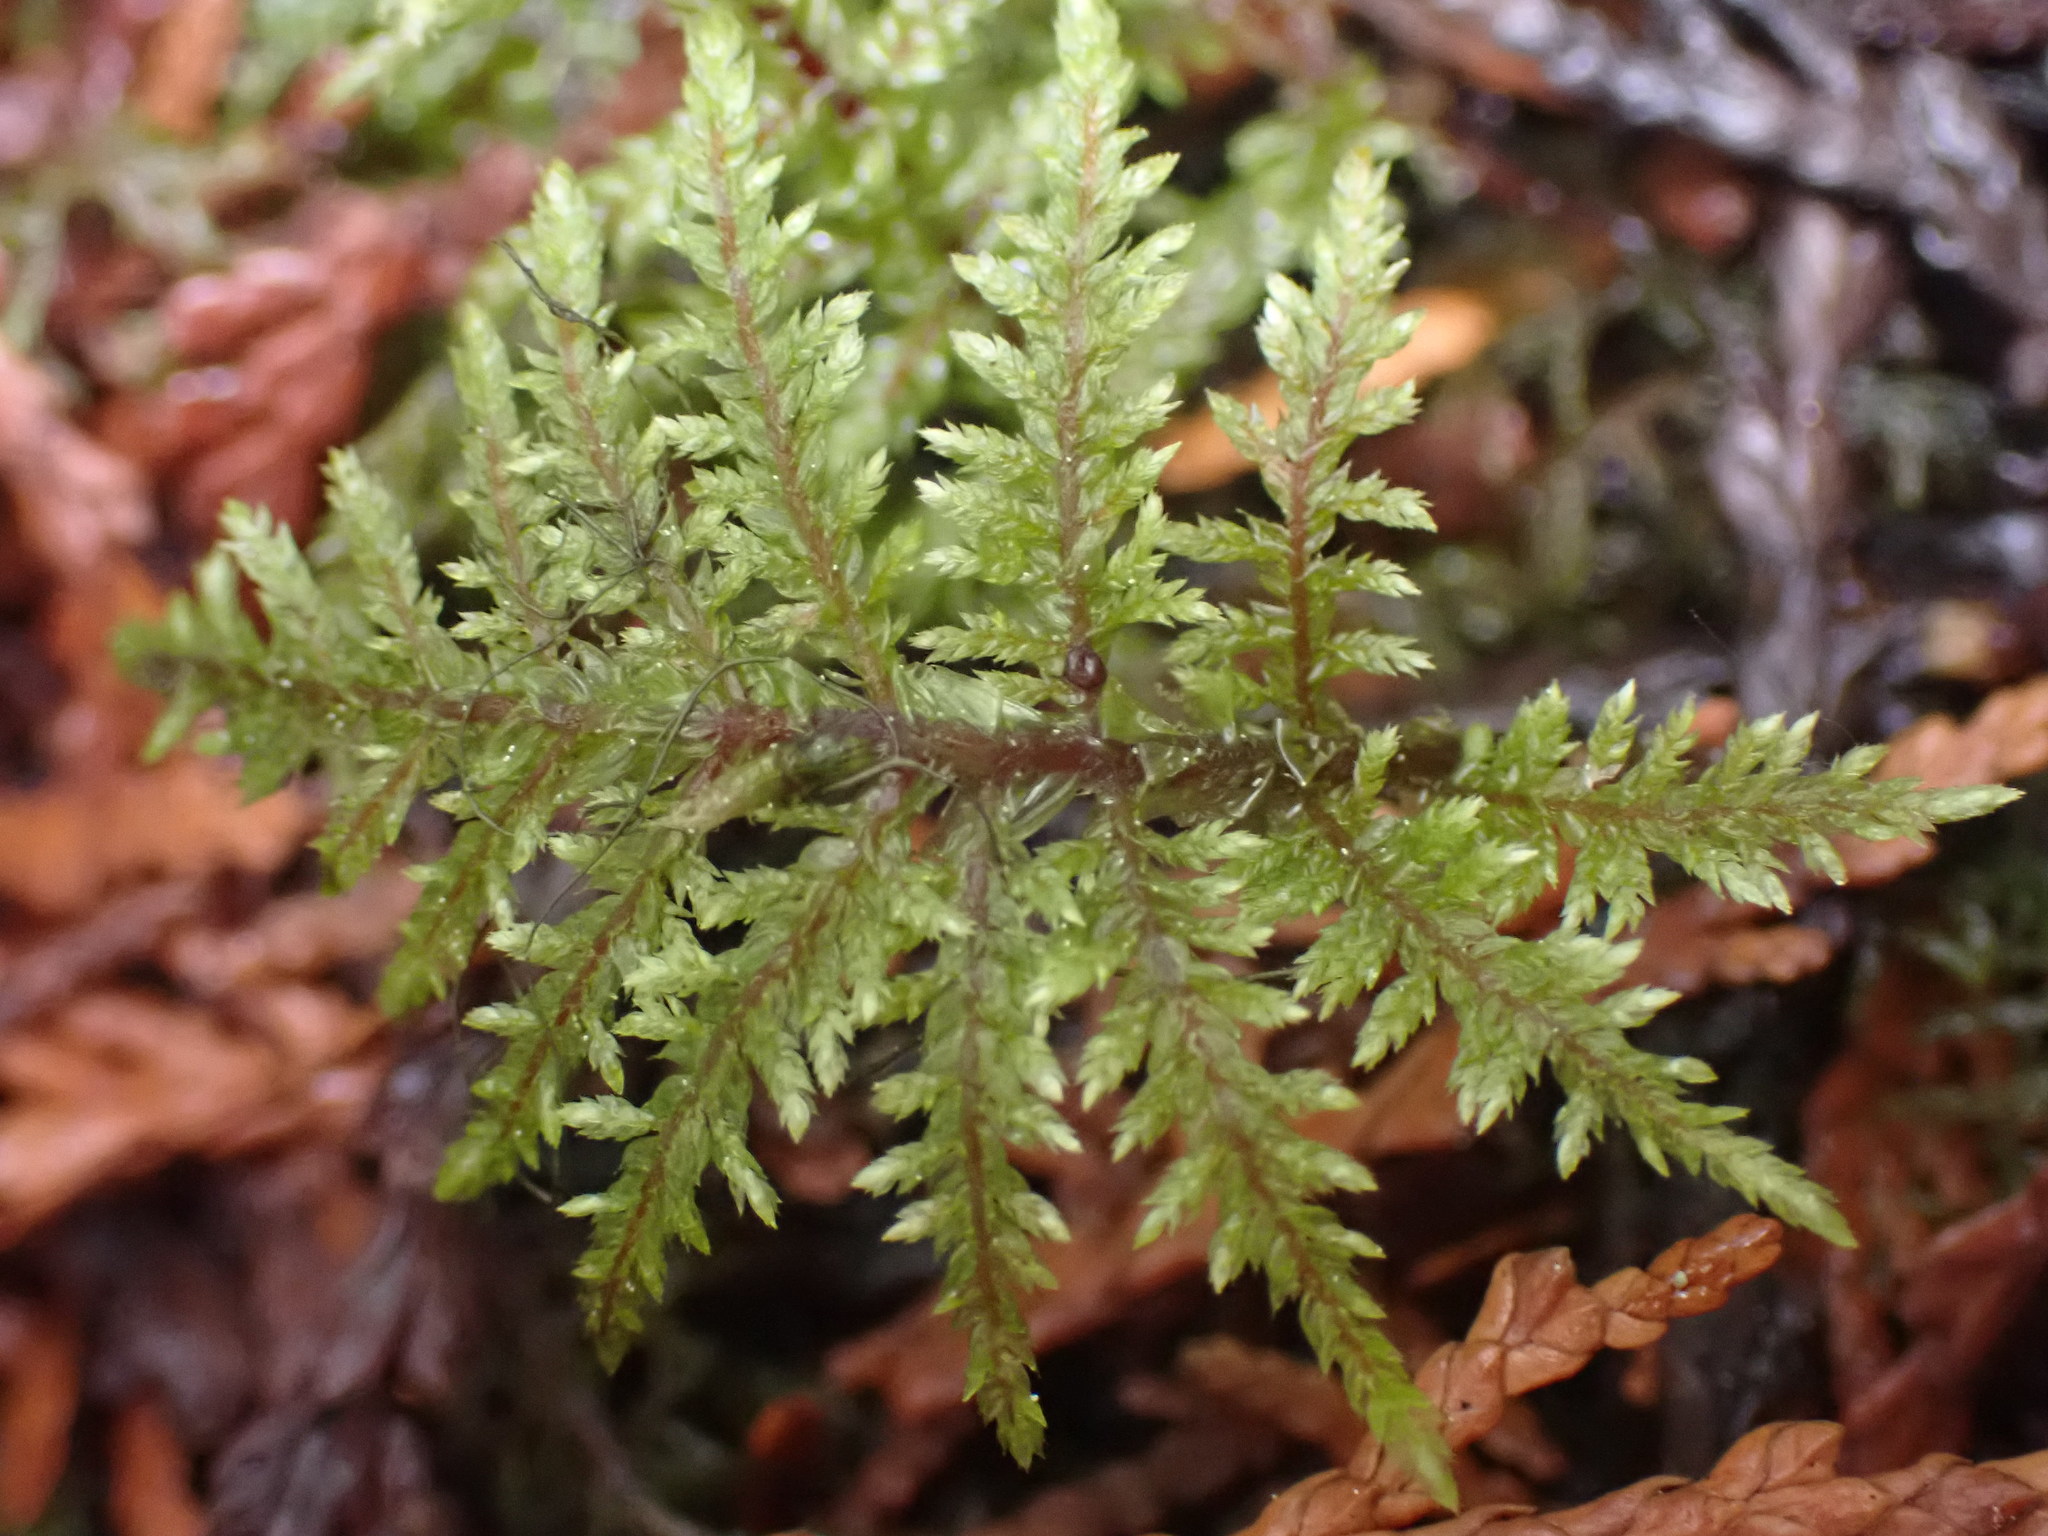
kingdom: Plantae
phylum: Bryophyta
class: Bryopsida
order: Hypnales
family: Hylocomiaceae
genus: Hylocomium
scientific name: Hylocomium splendens
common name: Stairstep moss
